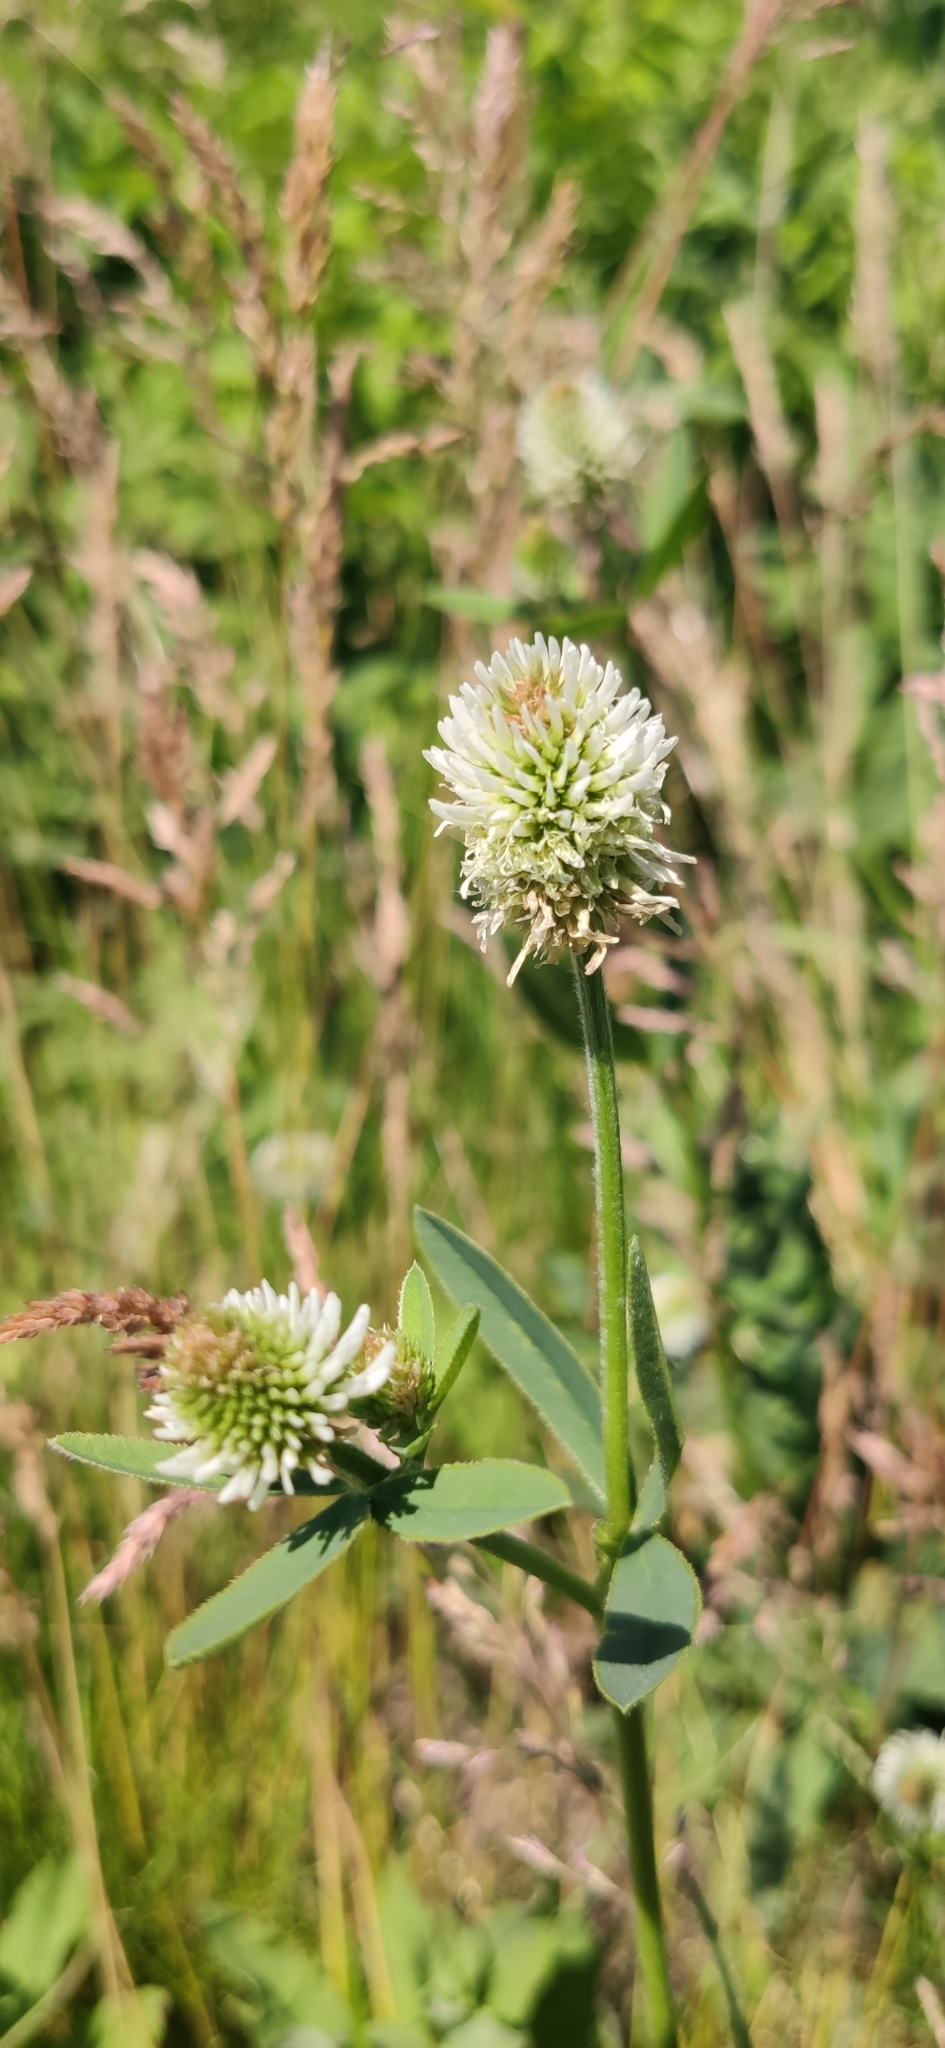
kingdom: Plantae
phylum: Tracheophyta
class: Magnoliopsida
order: Fabales
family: Fabaceae
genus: Trifolium
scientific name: Trifolium montanum
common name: Mountain clover
